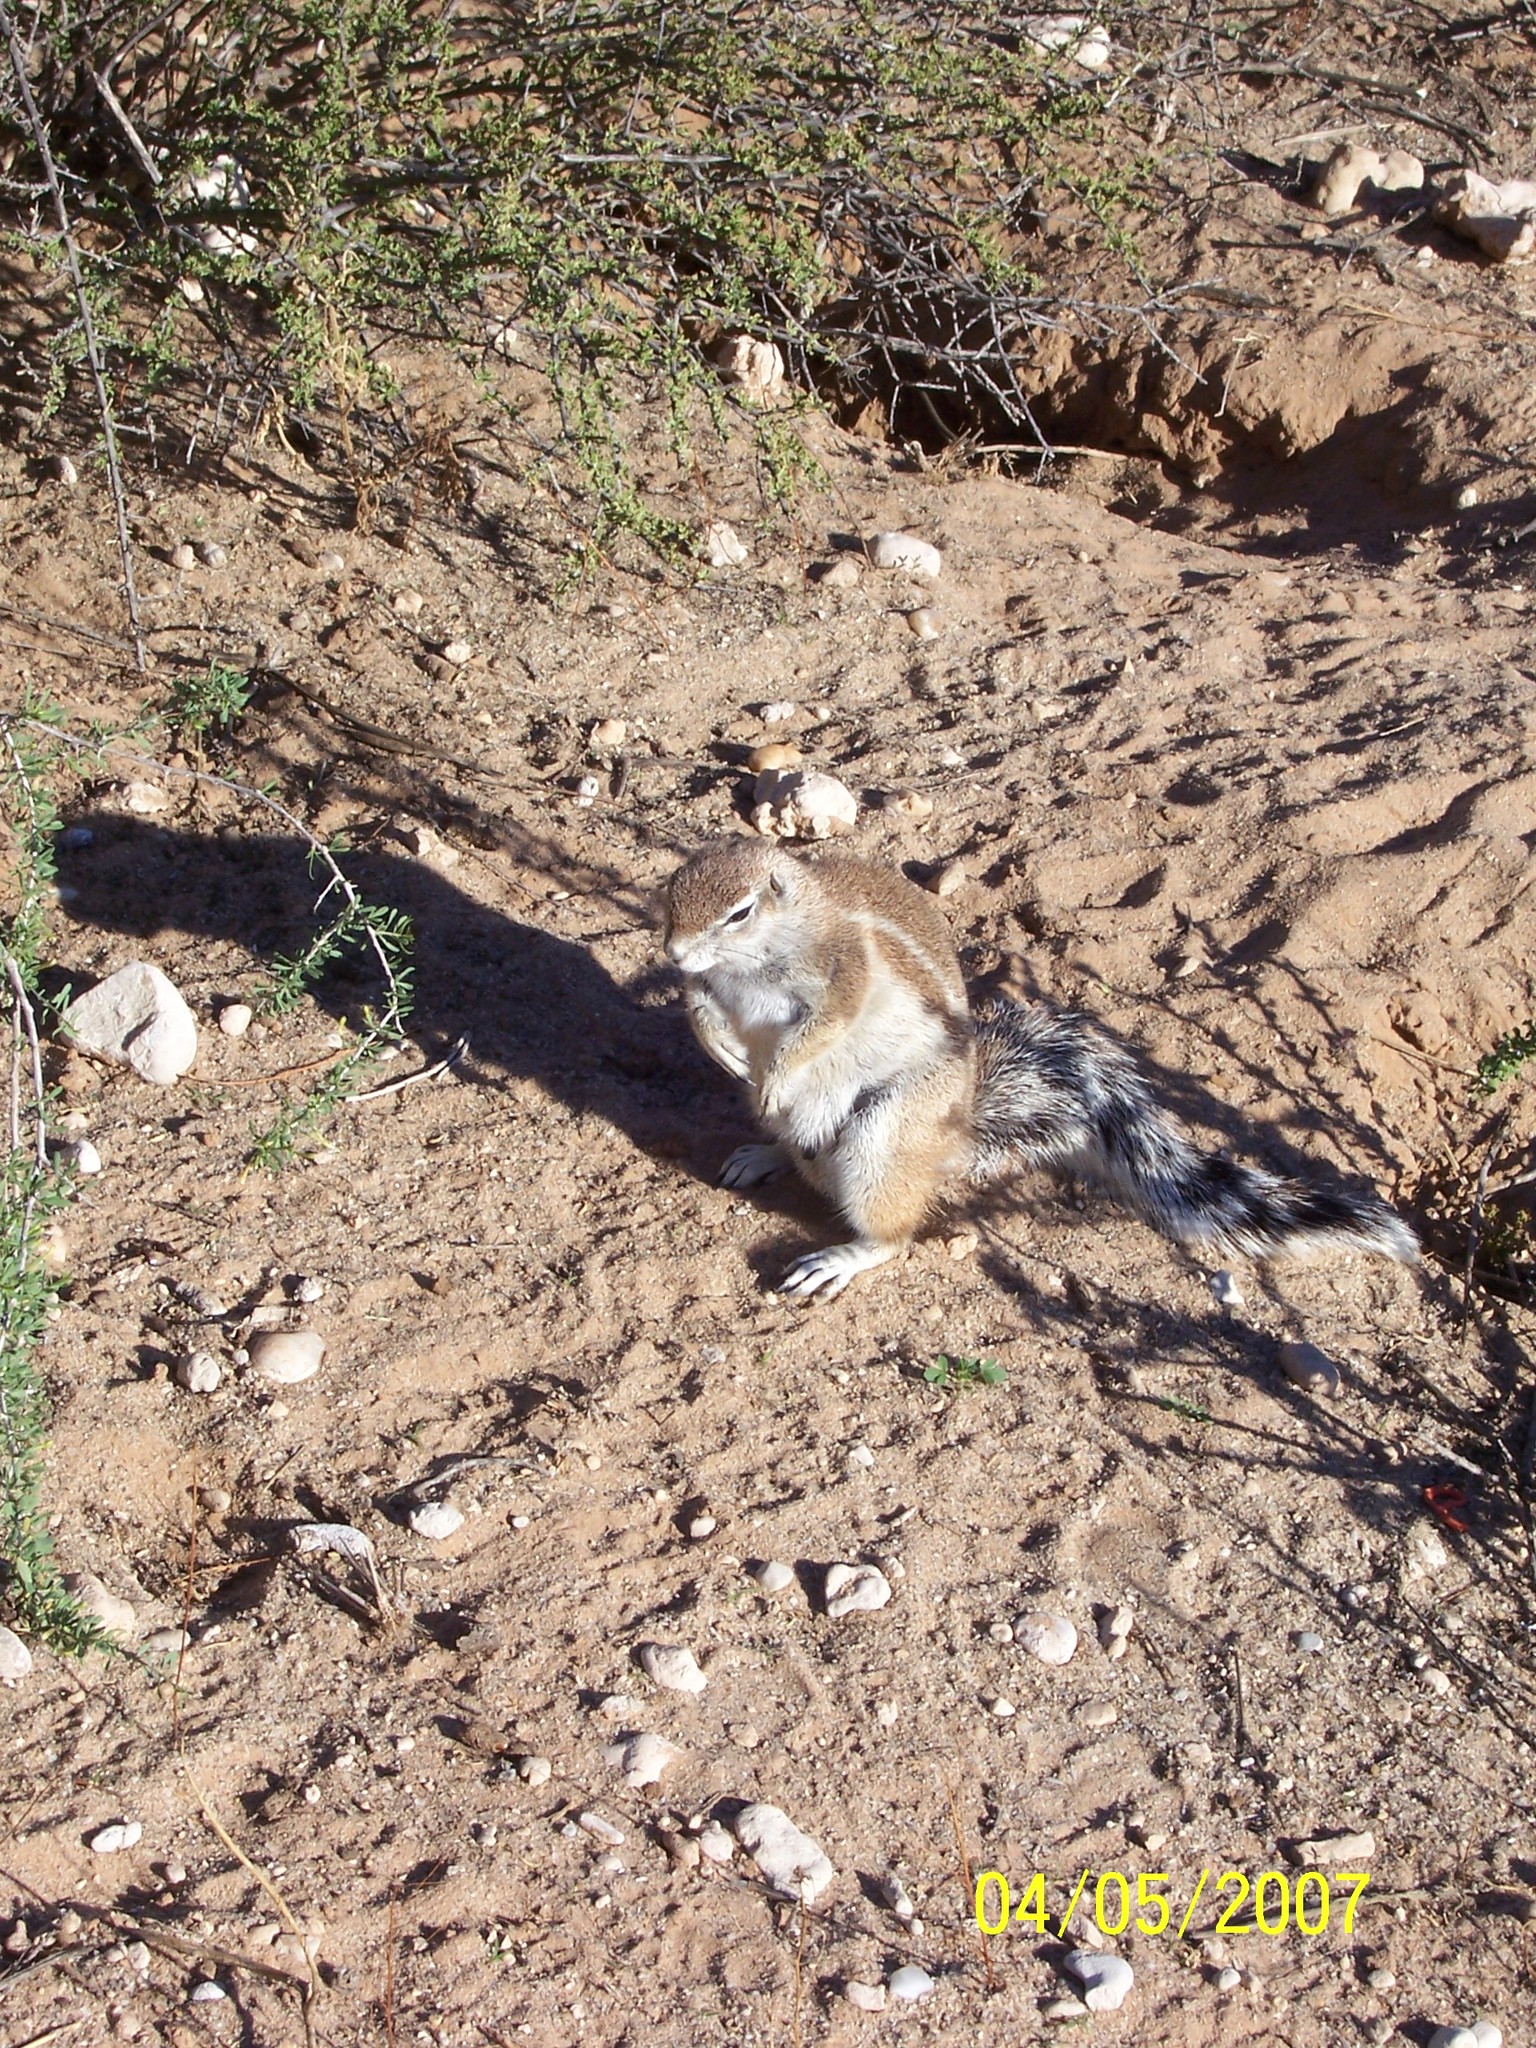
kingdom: Animalia
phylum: Chordata
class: Mammalia
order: Rodentia
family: Sciuridae
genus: Xerus
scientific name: Xerus inauris
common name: South african ground squirrel
